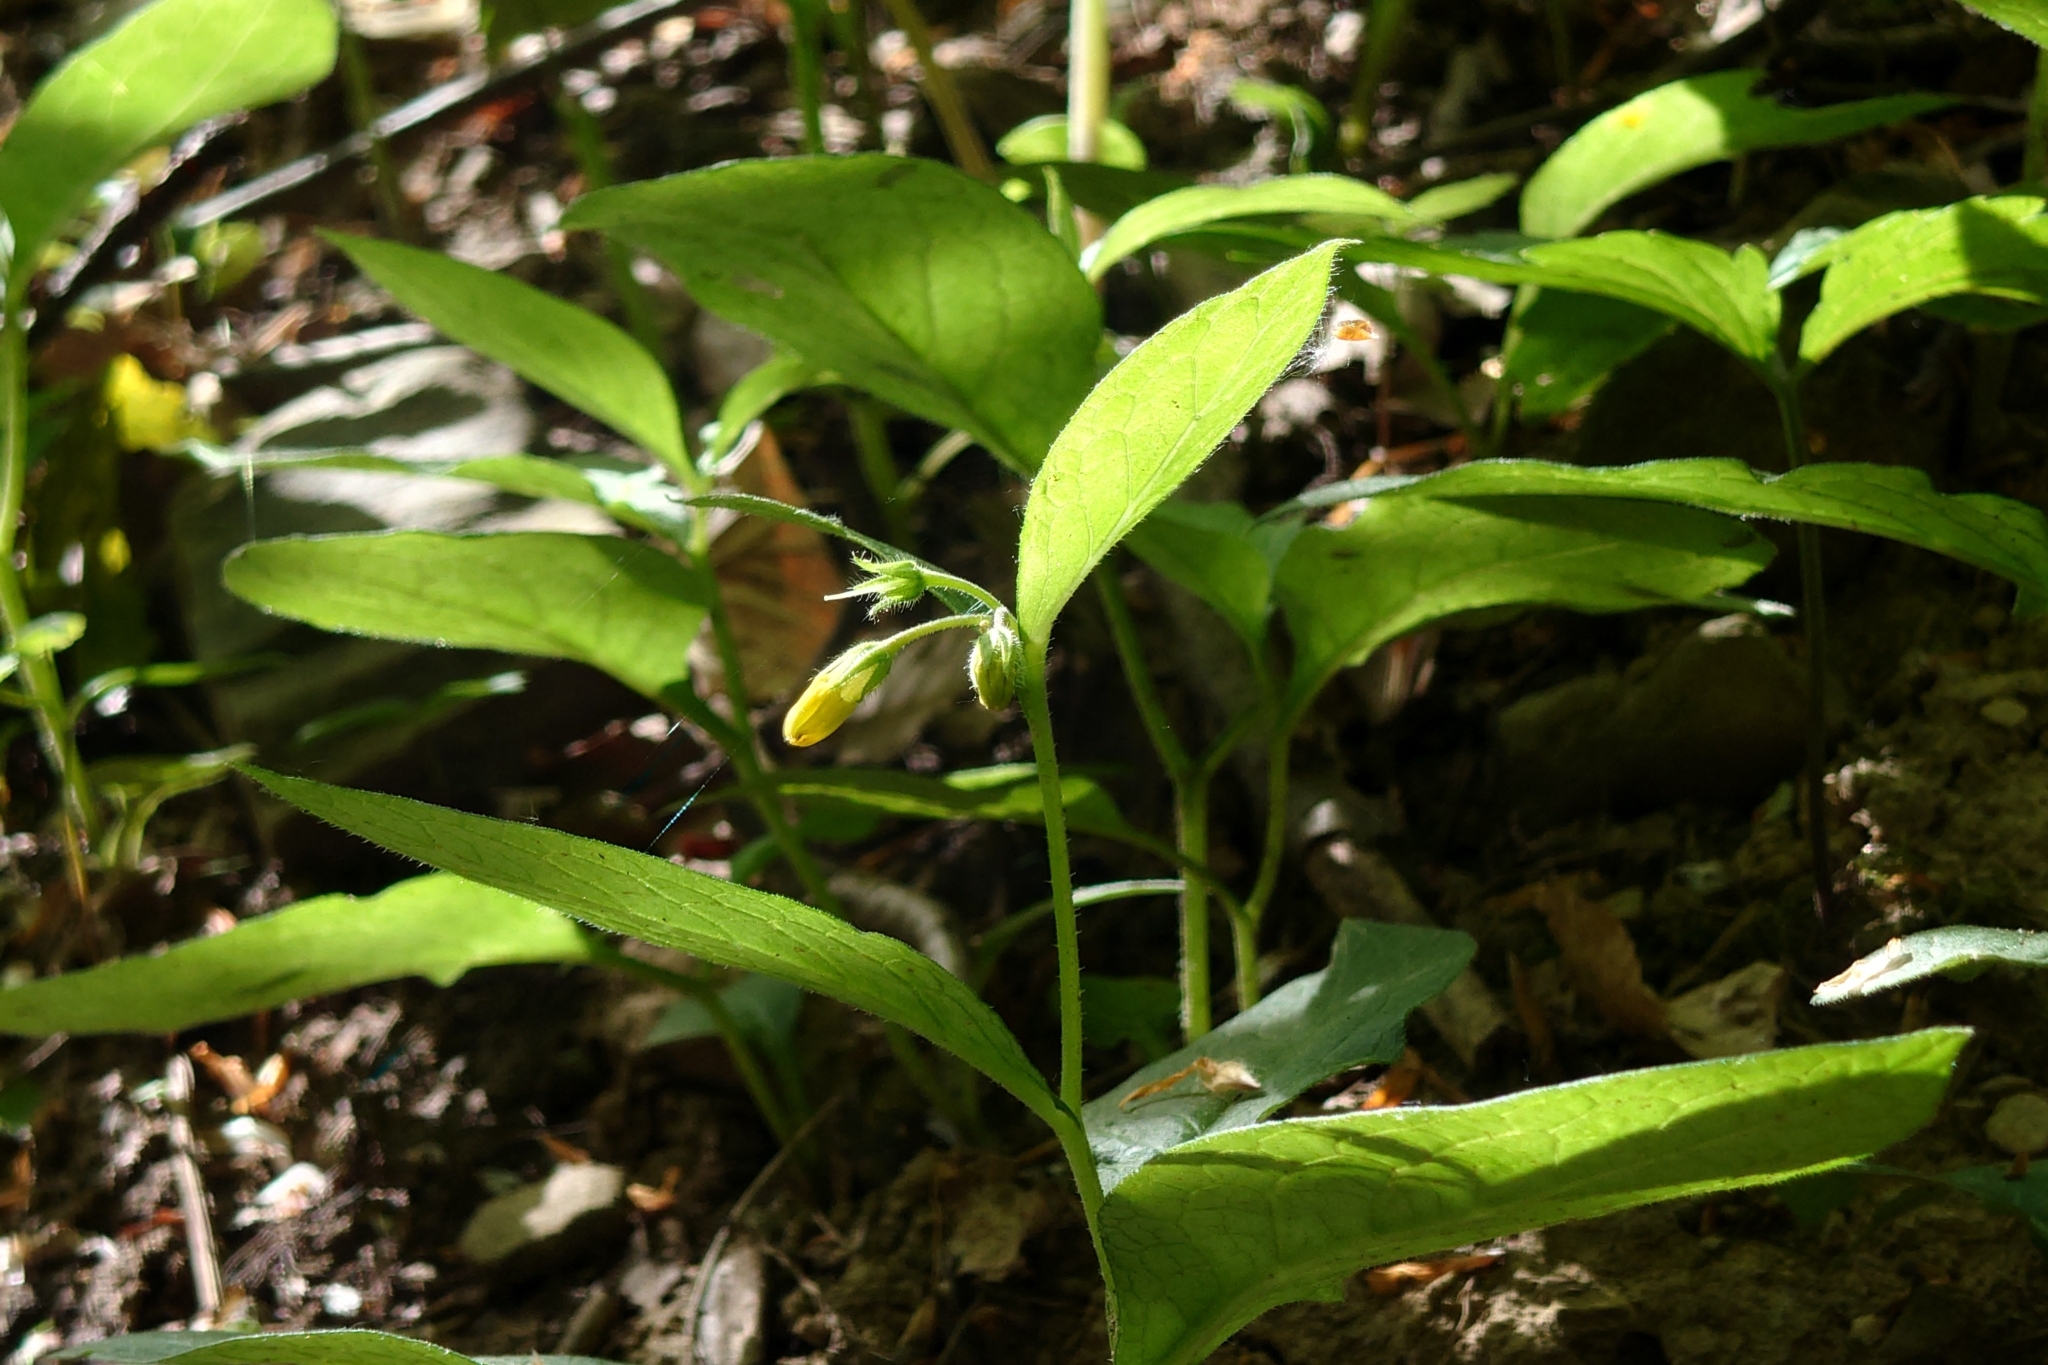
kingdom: Plantae
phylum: Tracheophyta
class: Magnoliopsida
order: Boraginales
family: Boraginaceae
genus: Symphytum
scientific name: Symphytum tuberosum
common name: Tuberous comfrey
